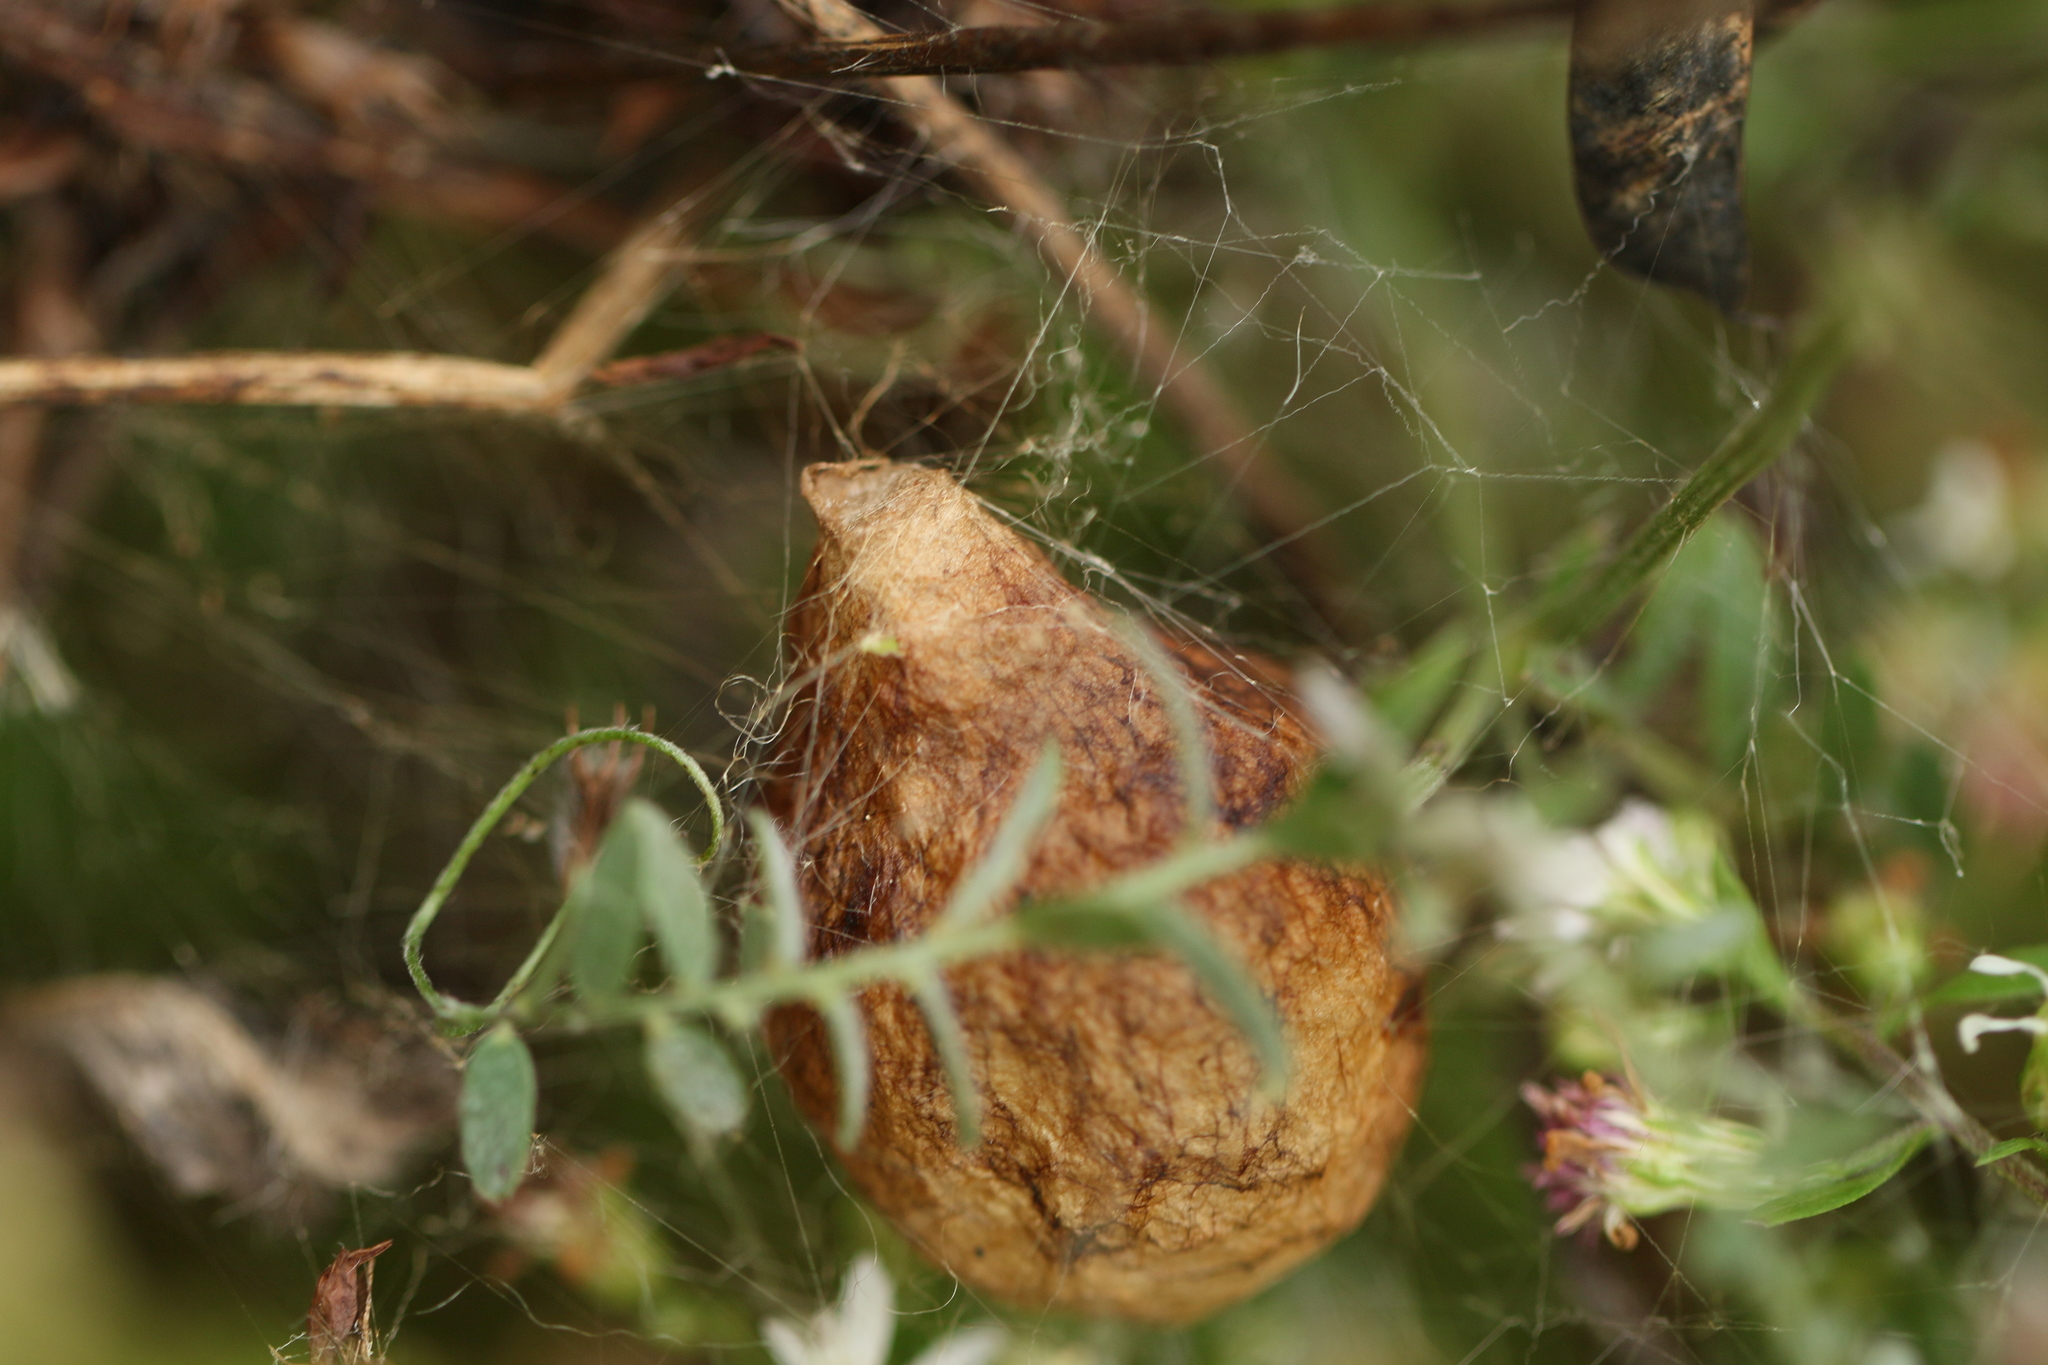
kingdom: Animalia
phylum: Arthropoda
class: Arachnida
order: Araneae
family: Araneidae
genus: Argiope
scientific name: Argiope aurantia
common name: Orb weavers
